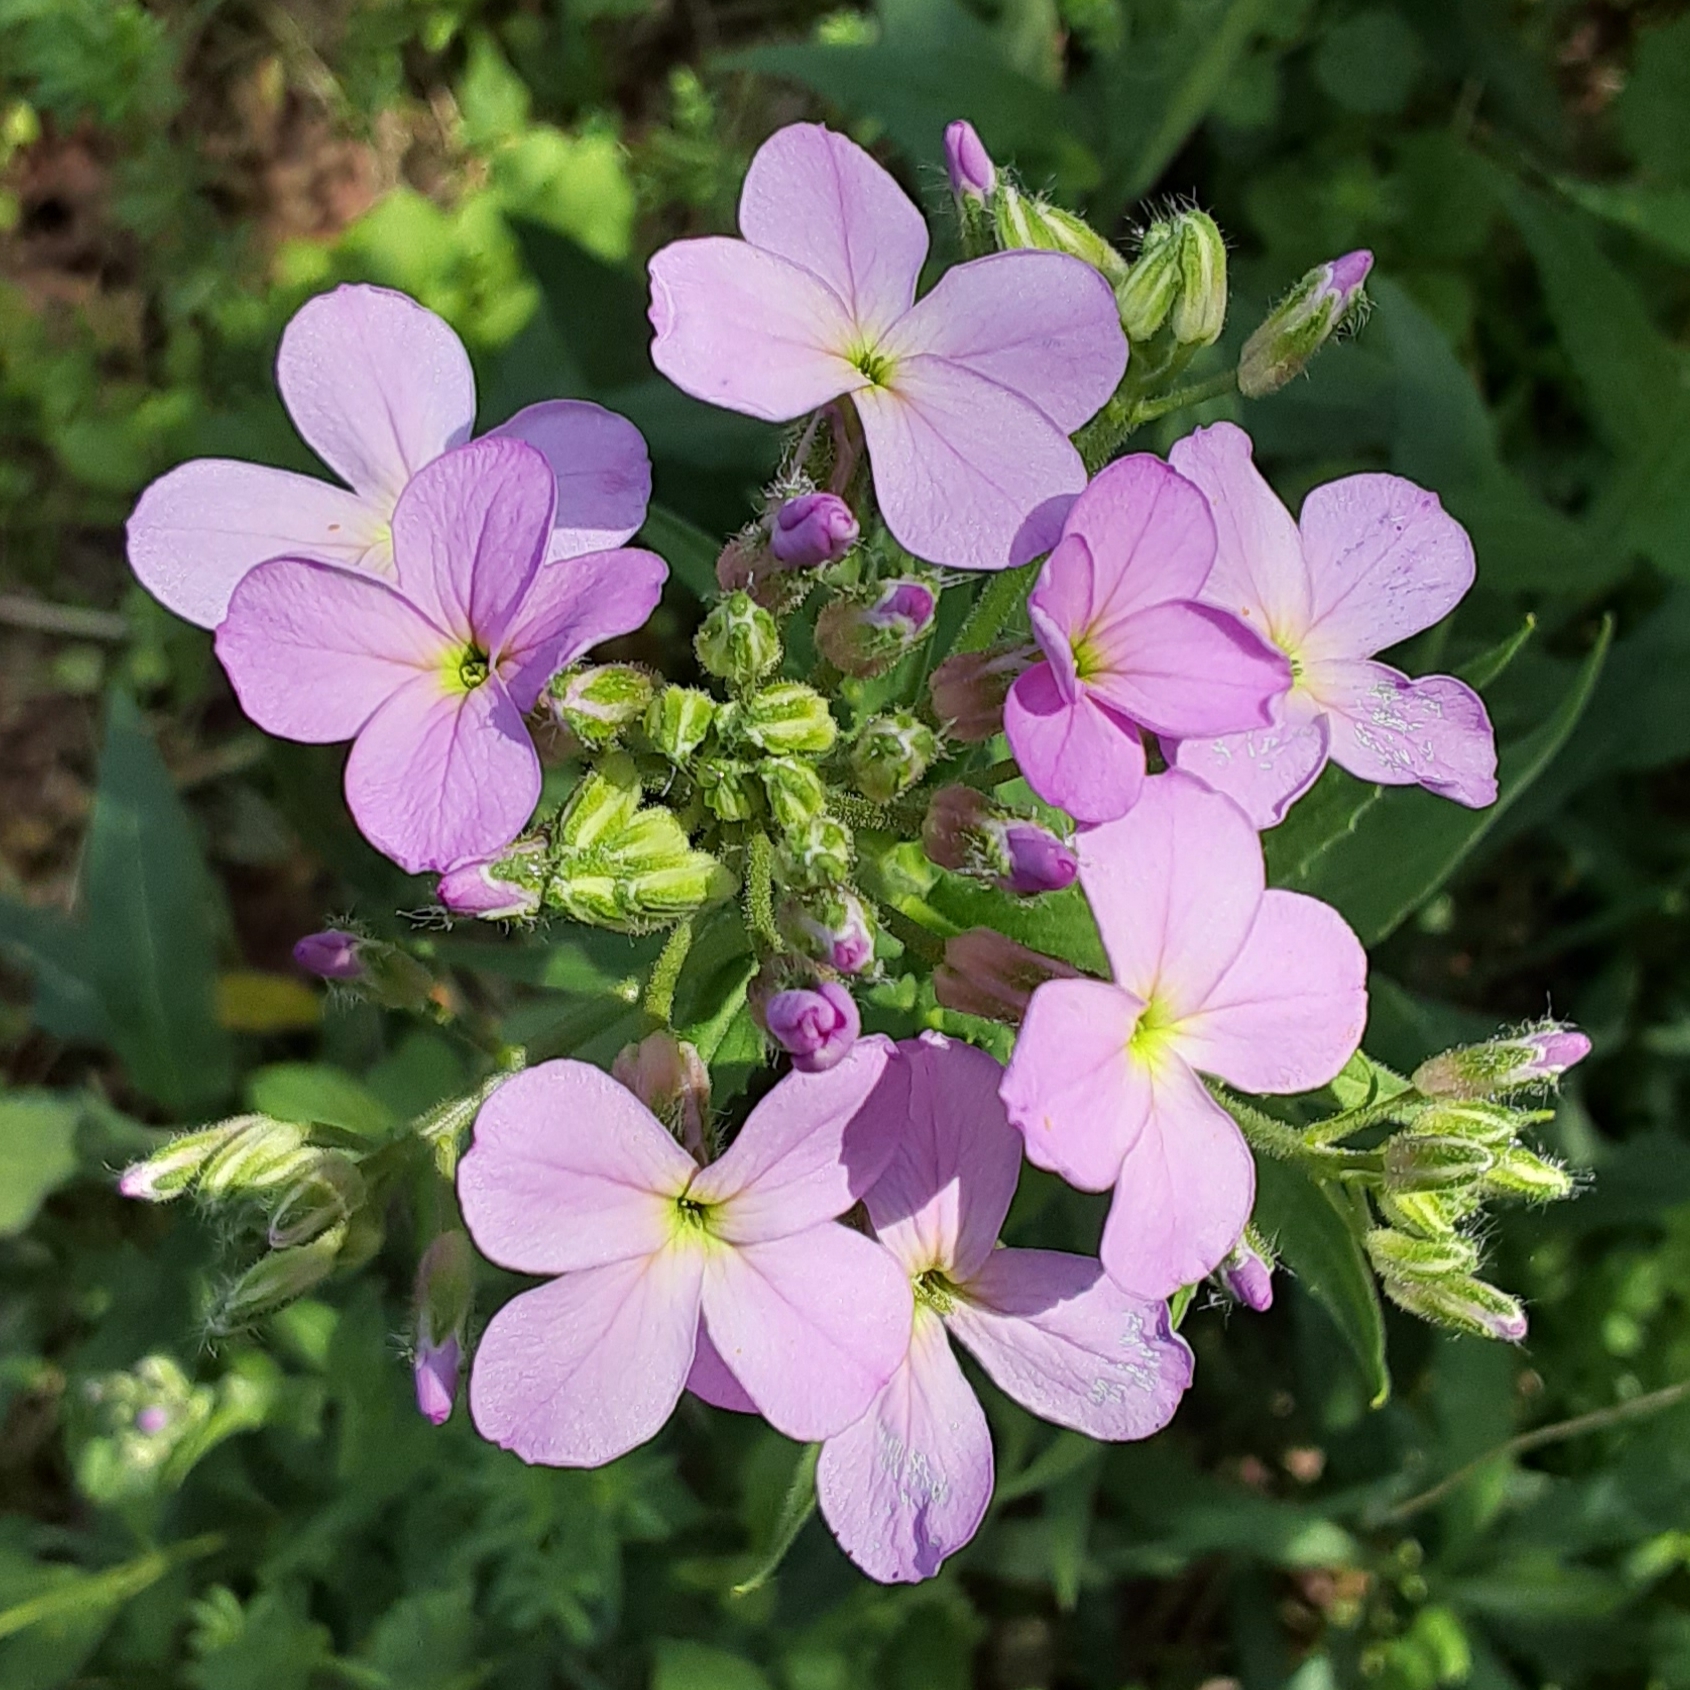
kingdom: Plantae
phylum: Tracheophyta
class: Magnoliopsida
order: Brassicales
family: Brassicaceae
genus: Hesperis
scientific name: Hesperis matronalis
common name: Dame's-violet
